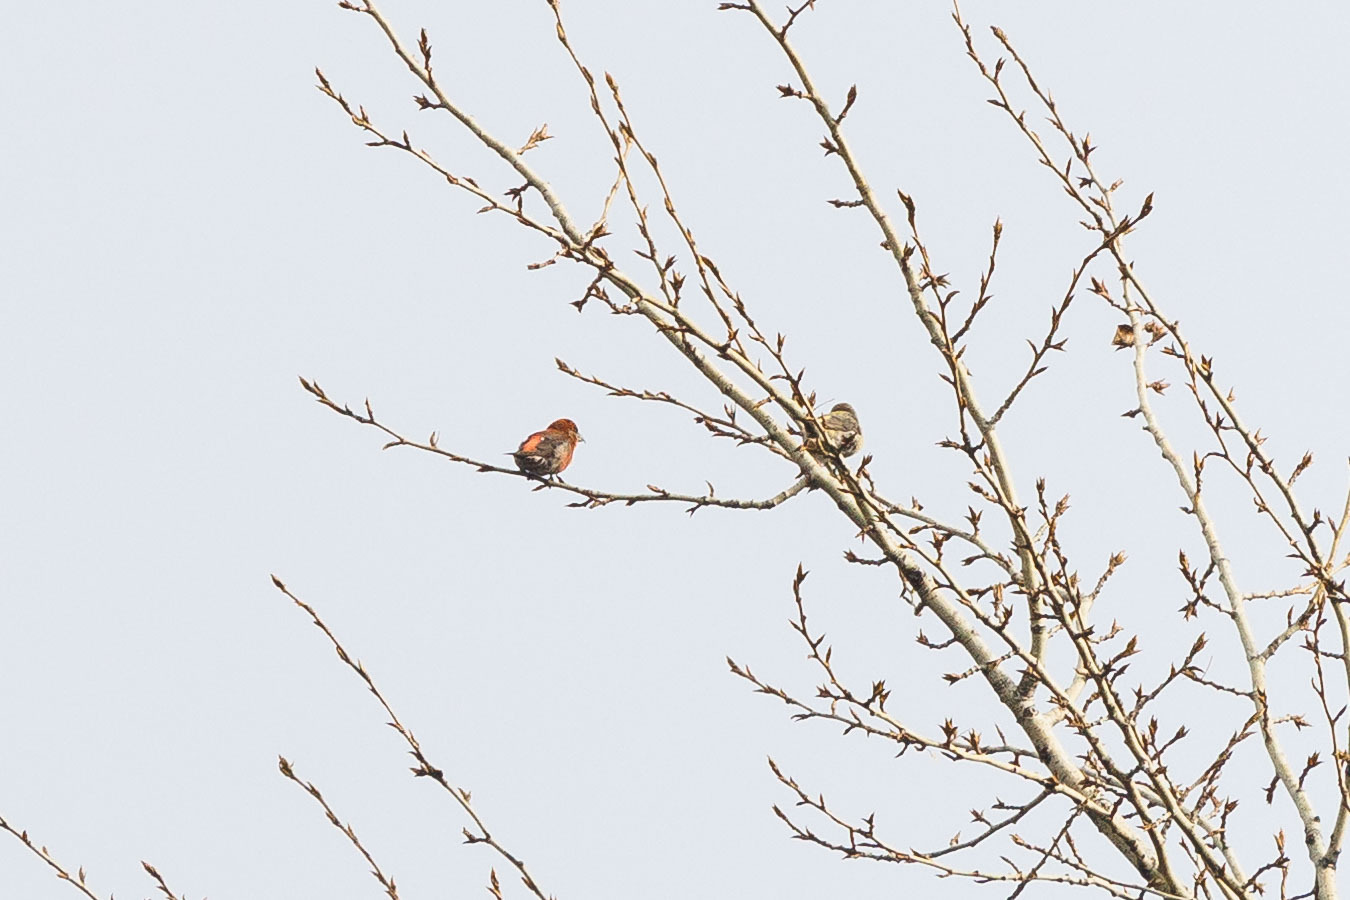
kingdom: Animalia
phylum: Chordata
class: Aves
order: Passeriformes
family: Fringillidae
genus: Loxia
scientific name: Loxia curvirostra
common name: Red crossbill
